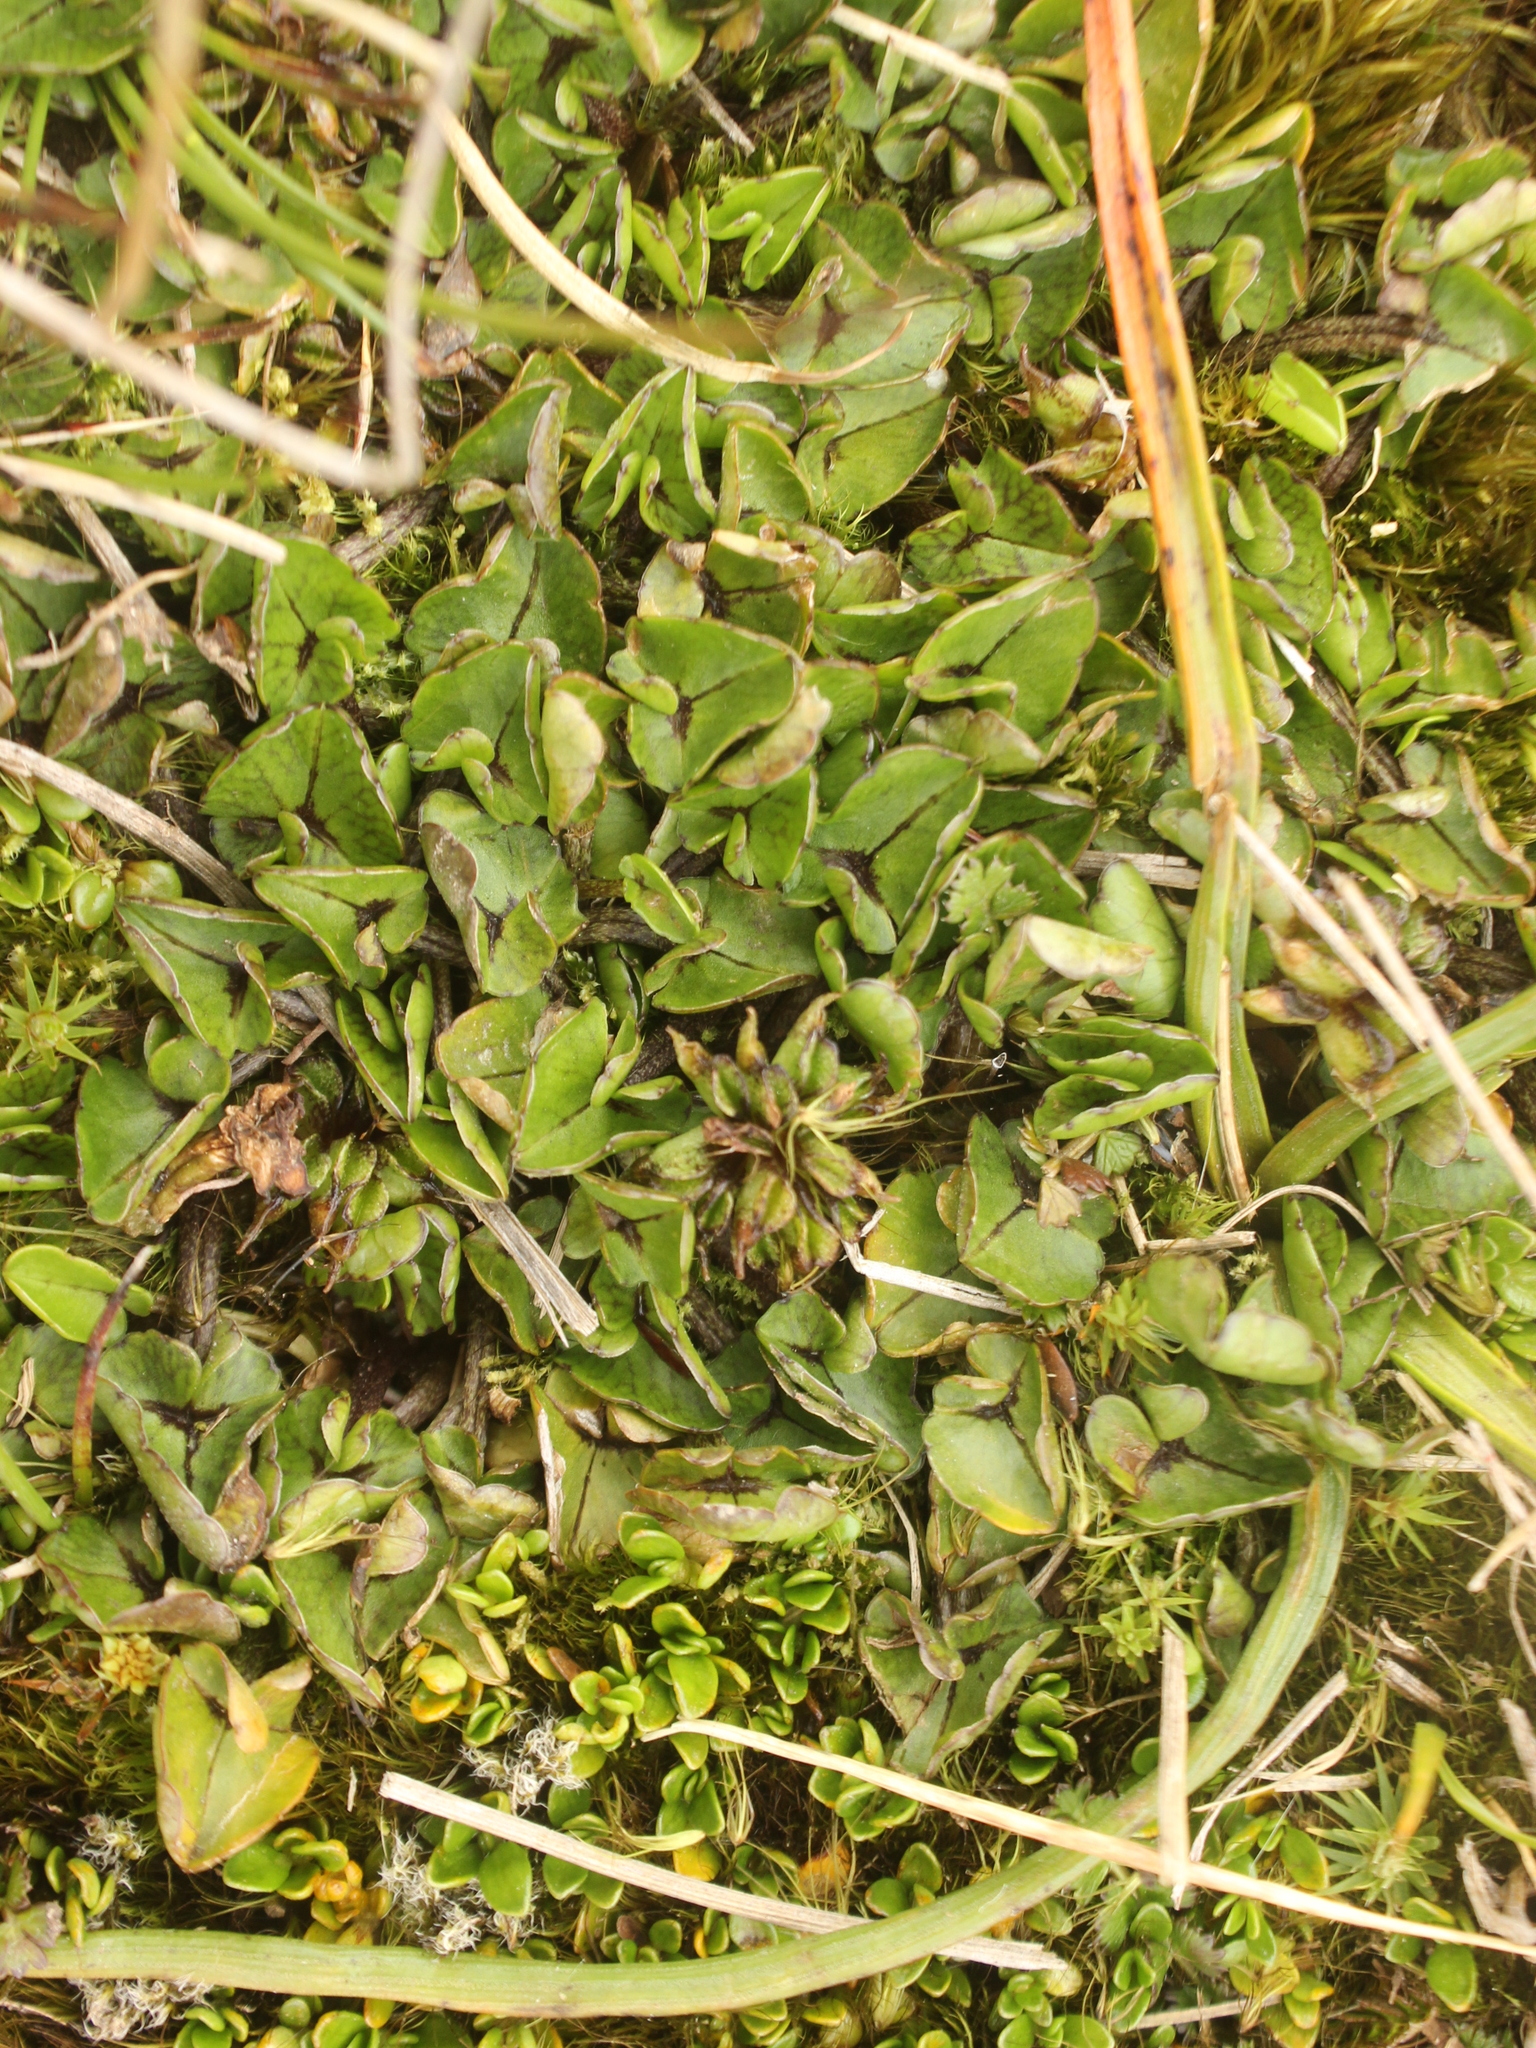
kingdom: Plantae
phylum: Tracheophyta
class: Magnoliopsida
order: Ranunculales
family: Ranunculaceae
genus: Caltha
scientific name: Caltha novae-zelandiae
